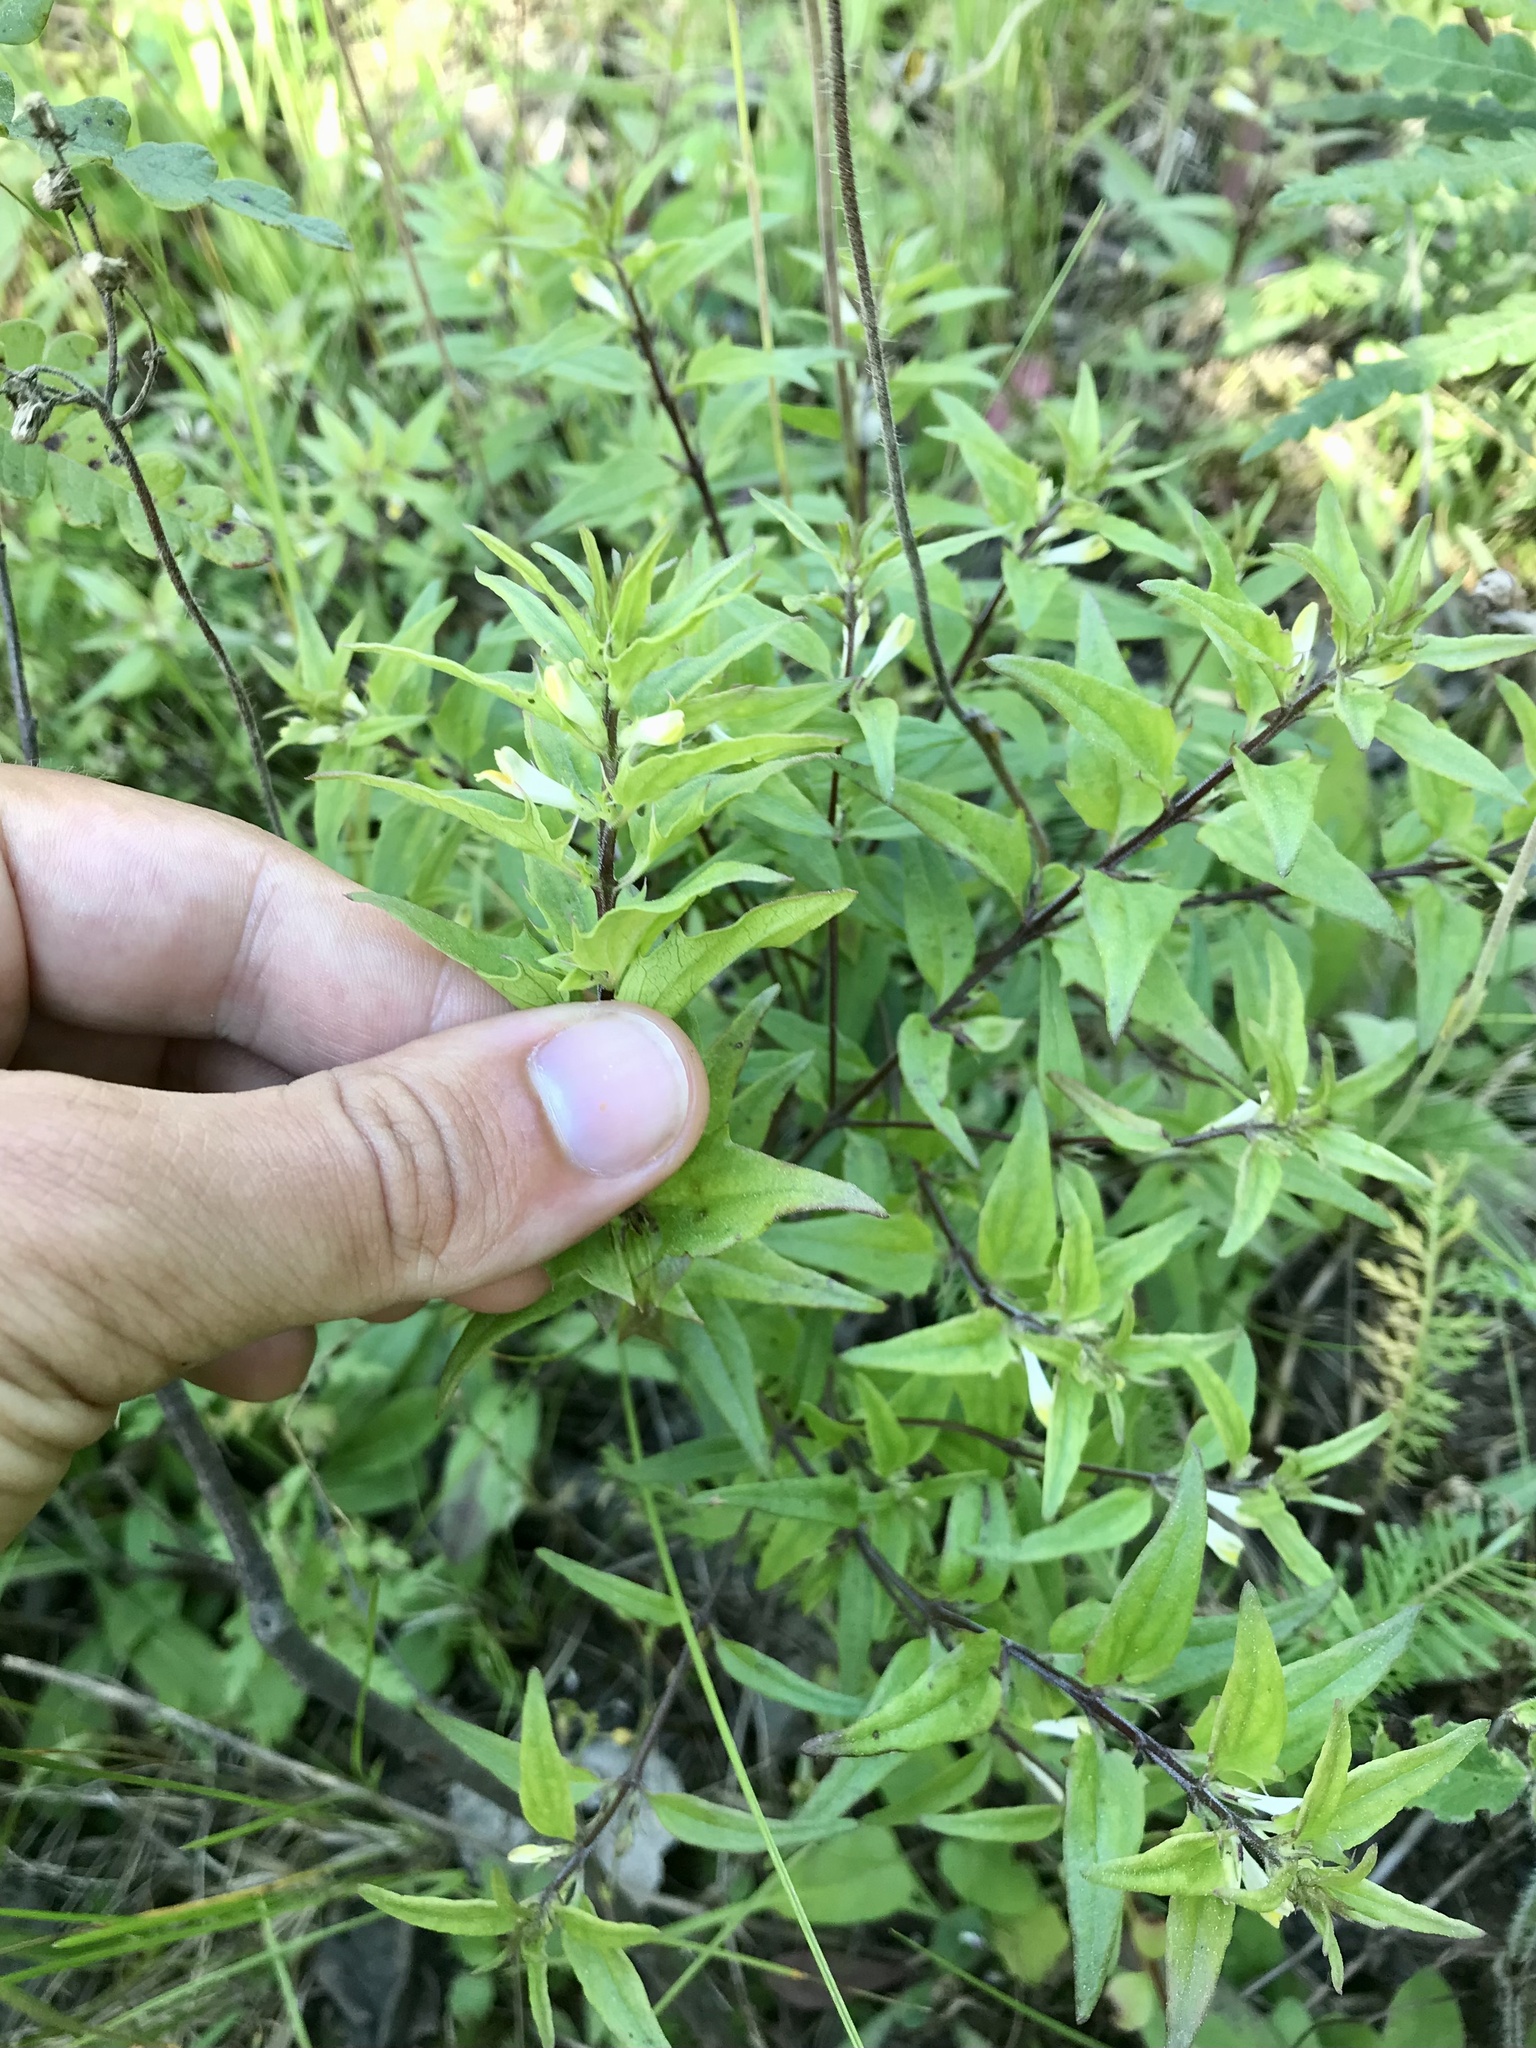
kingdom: Plantae
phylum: Tracheophyta
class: Magnoliopsida
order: Lamiales
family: Orobanchaceae
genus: Melampyrum
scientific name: Melampyrum lineare
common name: American cow-wheat
